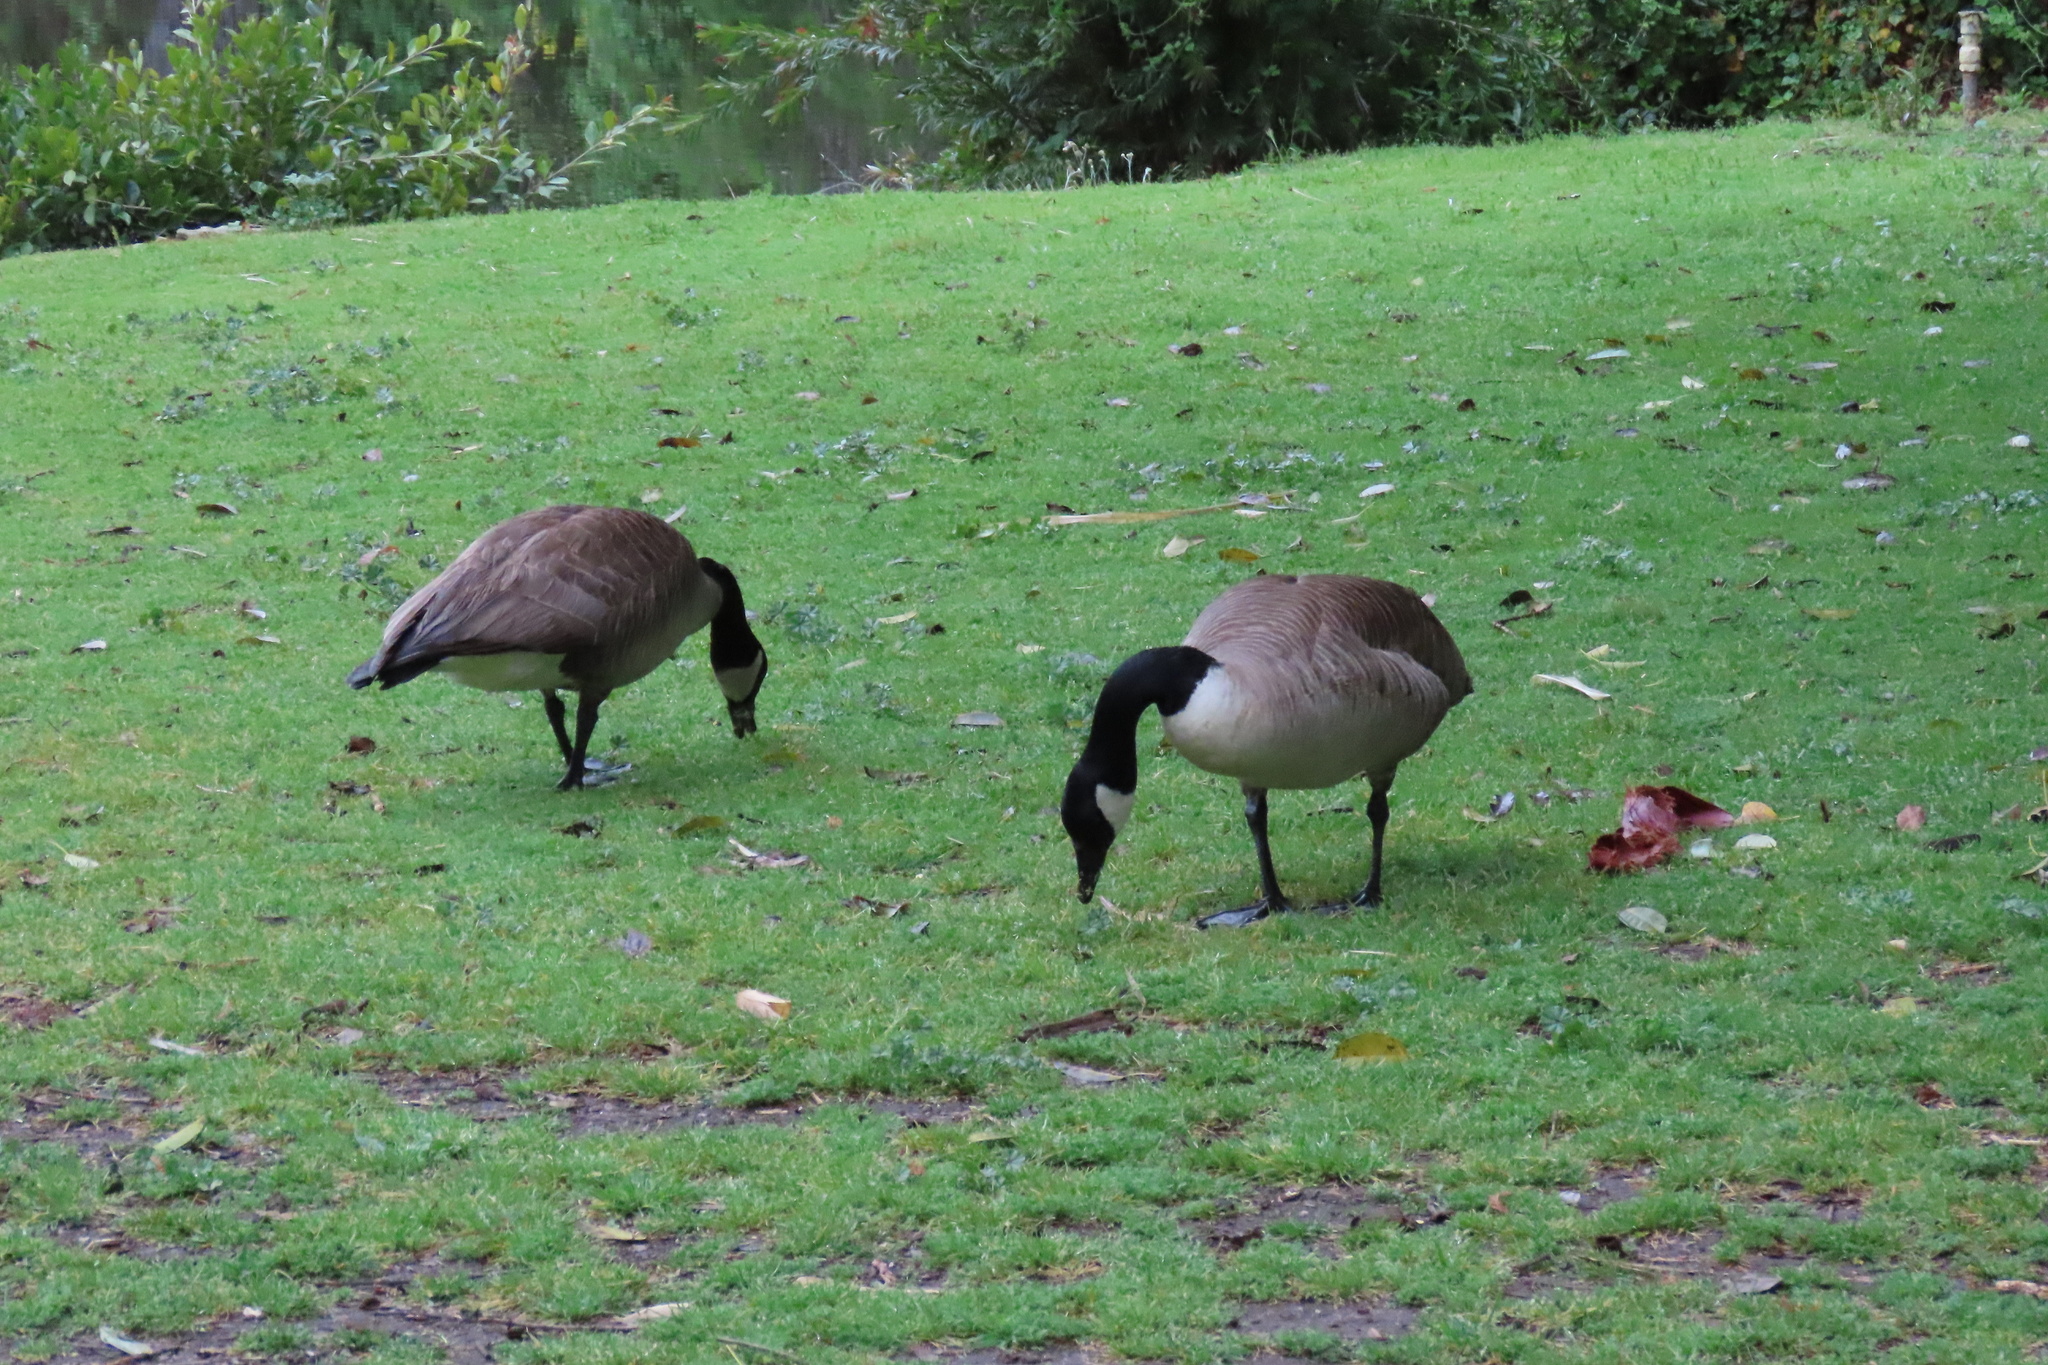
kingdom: Animalia
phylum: Chordata
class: Aves
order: Anseriformes
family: Anatidae
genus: Branta
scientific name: Branta canadensis
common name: Canada goose
